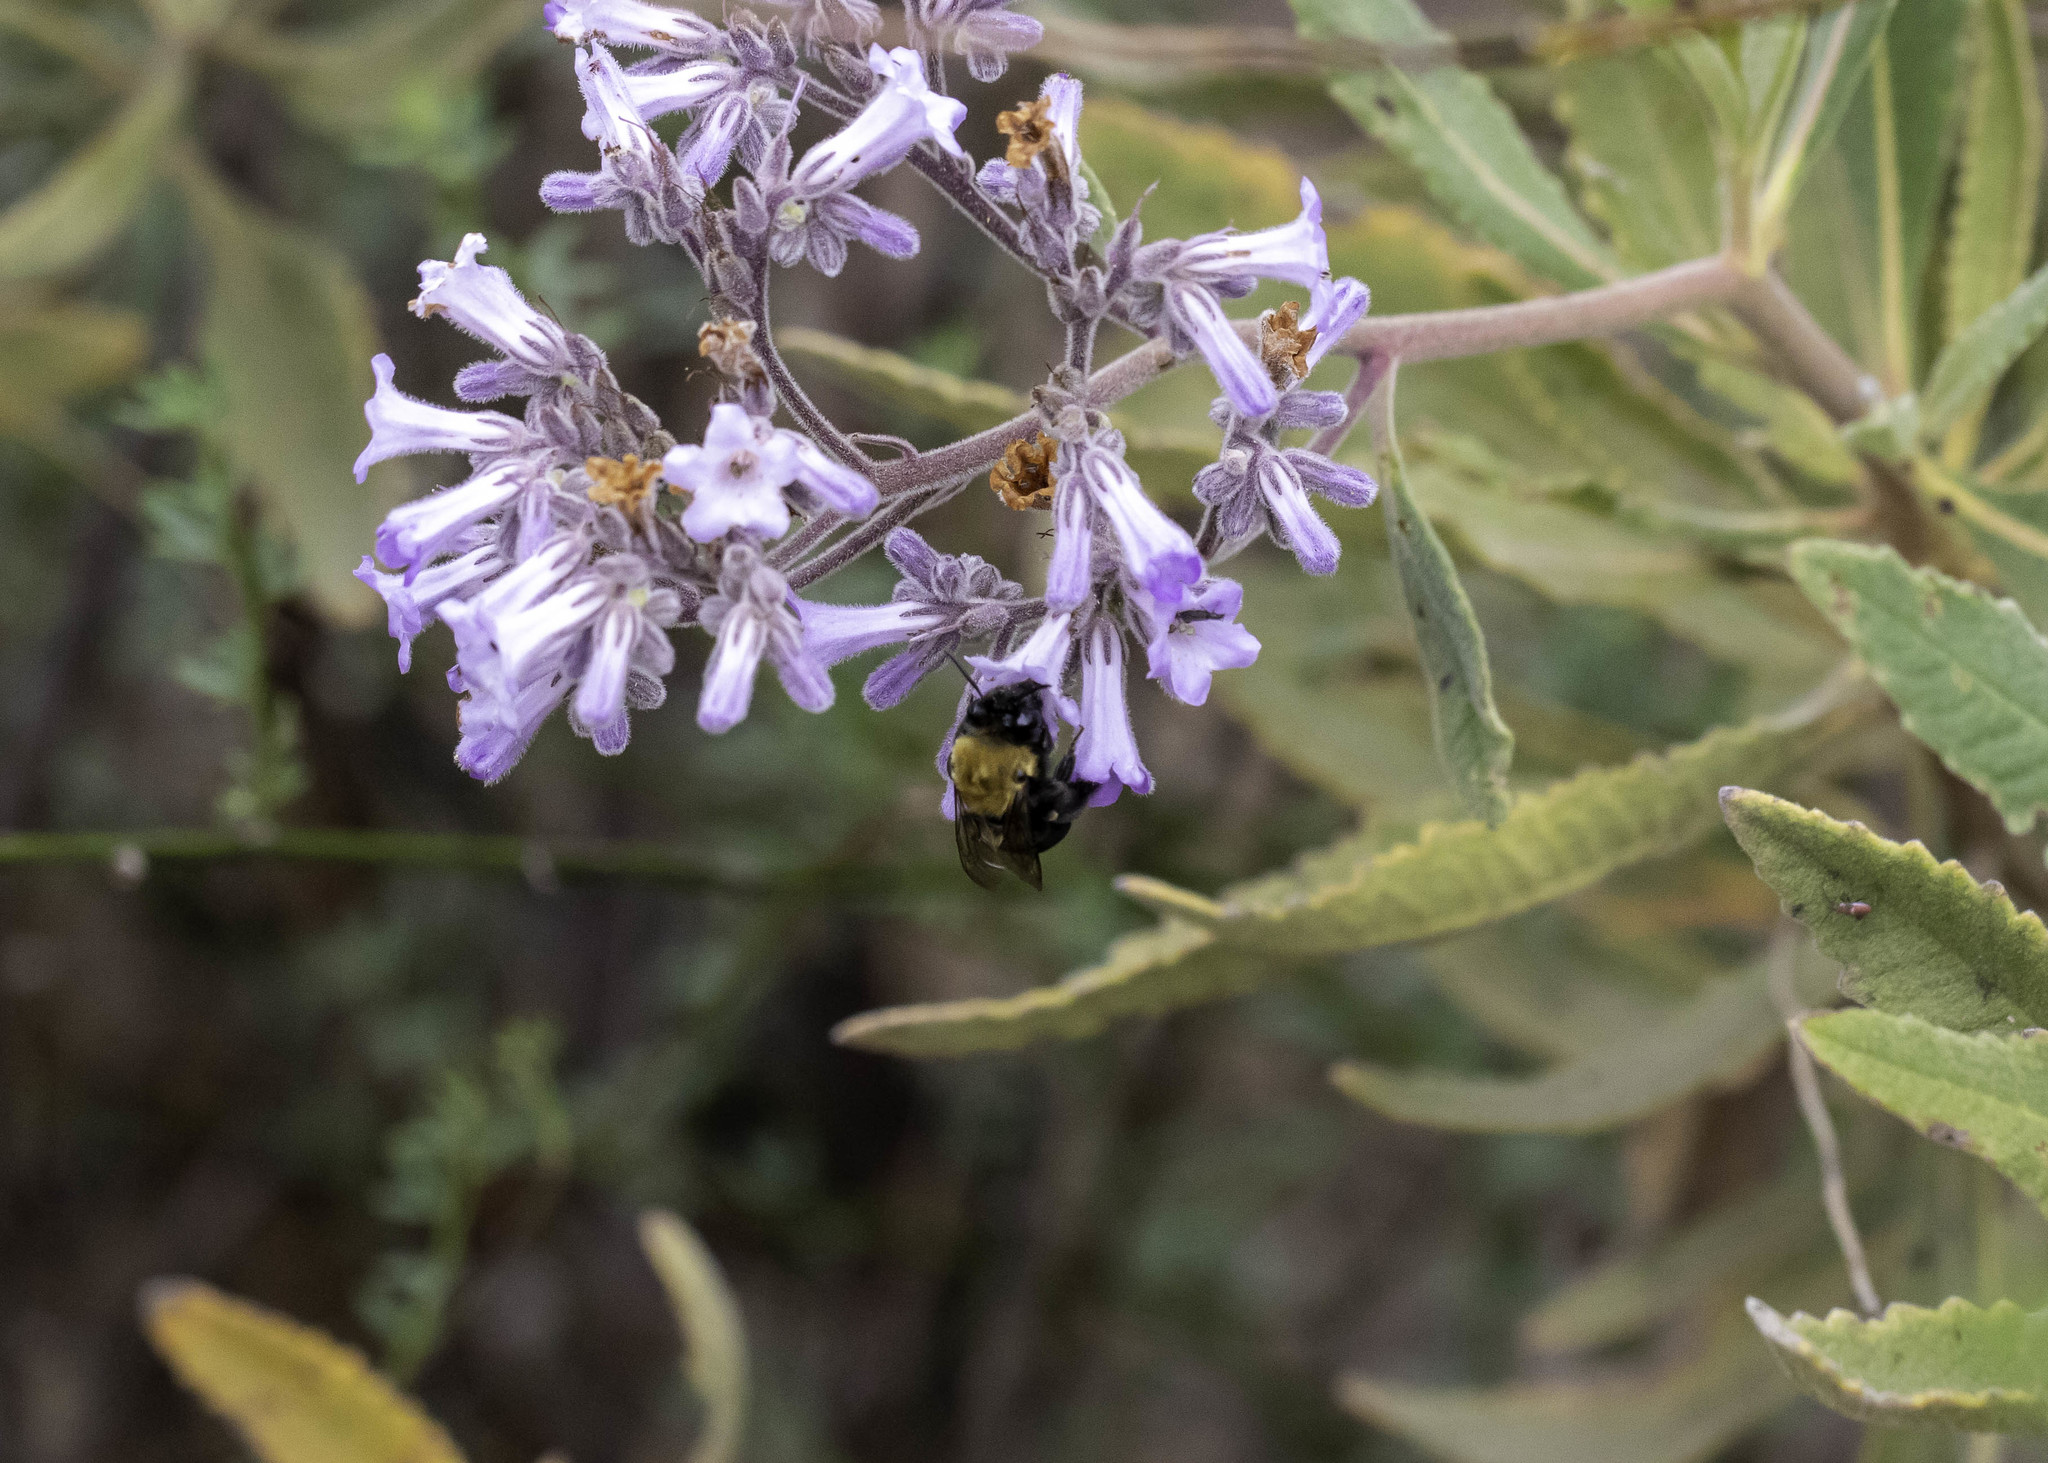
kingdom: Animalia
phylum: Arthropoda
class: Insecta
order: Hymenoptera
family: Apidae
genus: Habropoda
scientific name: Habropoda tristissima
